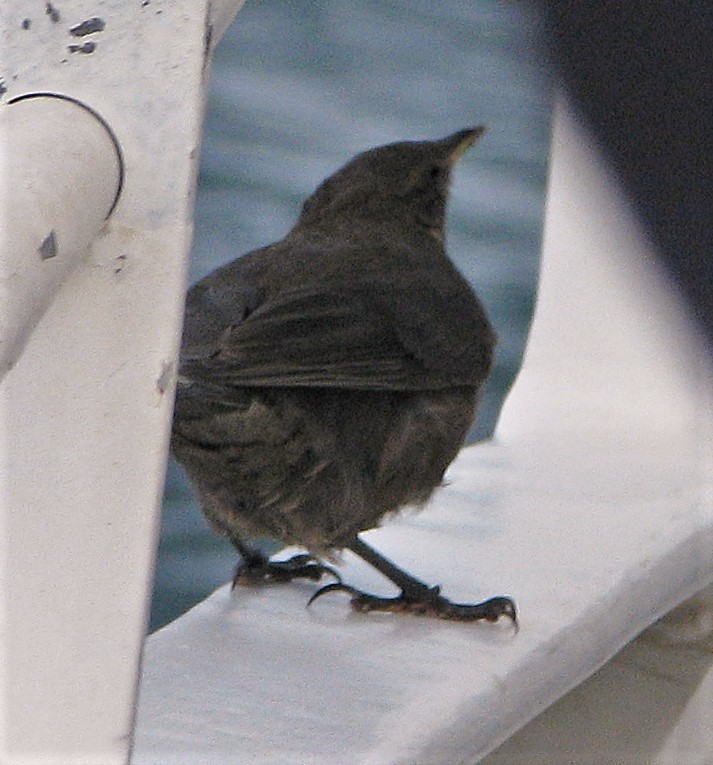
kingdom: Animalia
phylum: Chordata
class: Aves
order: Passeriformes
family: Furnariidae
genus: Cinclodes
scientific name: Cinclodes antarcticus
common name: Blackish cinclodes
